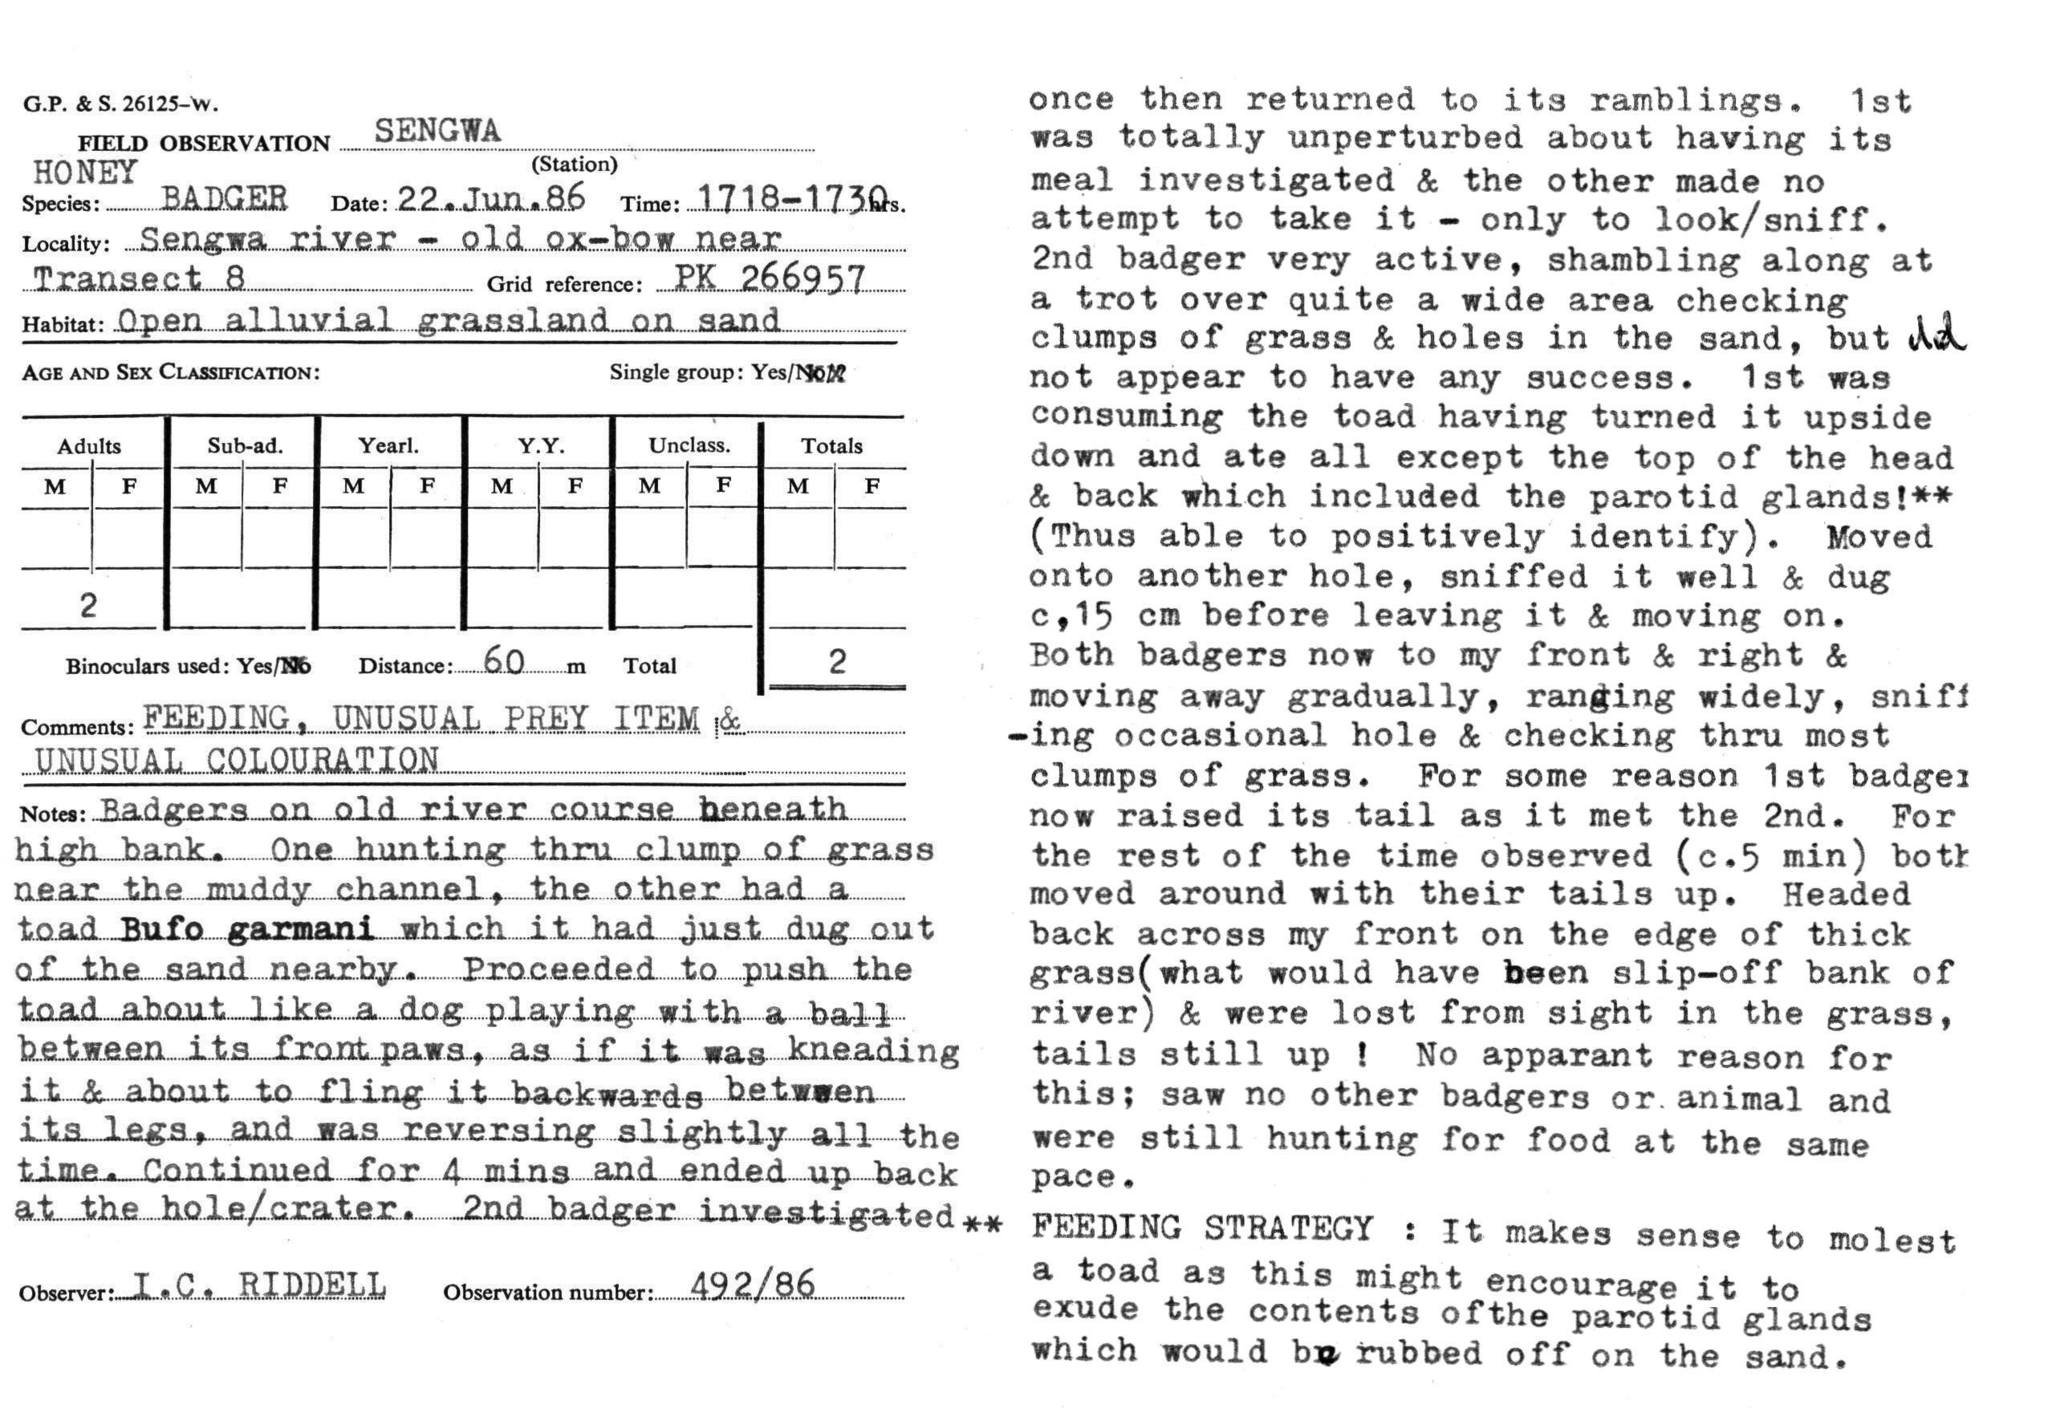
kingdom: Animalia
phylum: Chordata
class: Mammalia
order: Carnivora
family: Mustelidae
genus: Mellivora
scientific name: Mellivora capensis
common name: Honey badger
